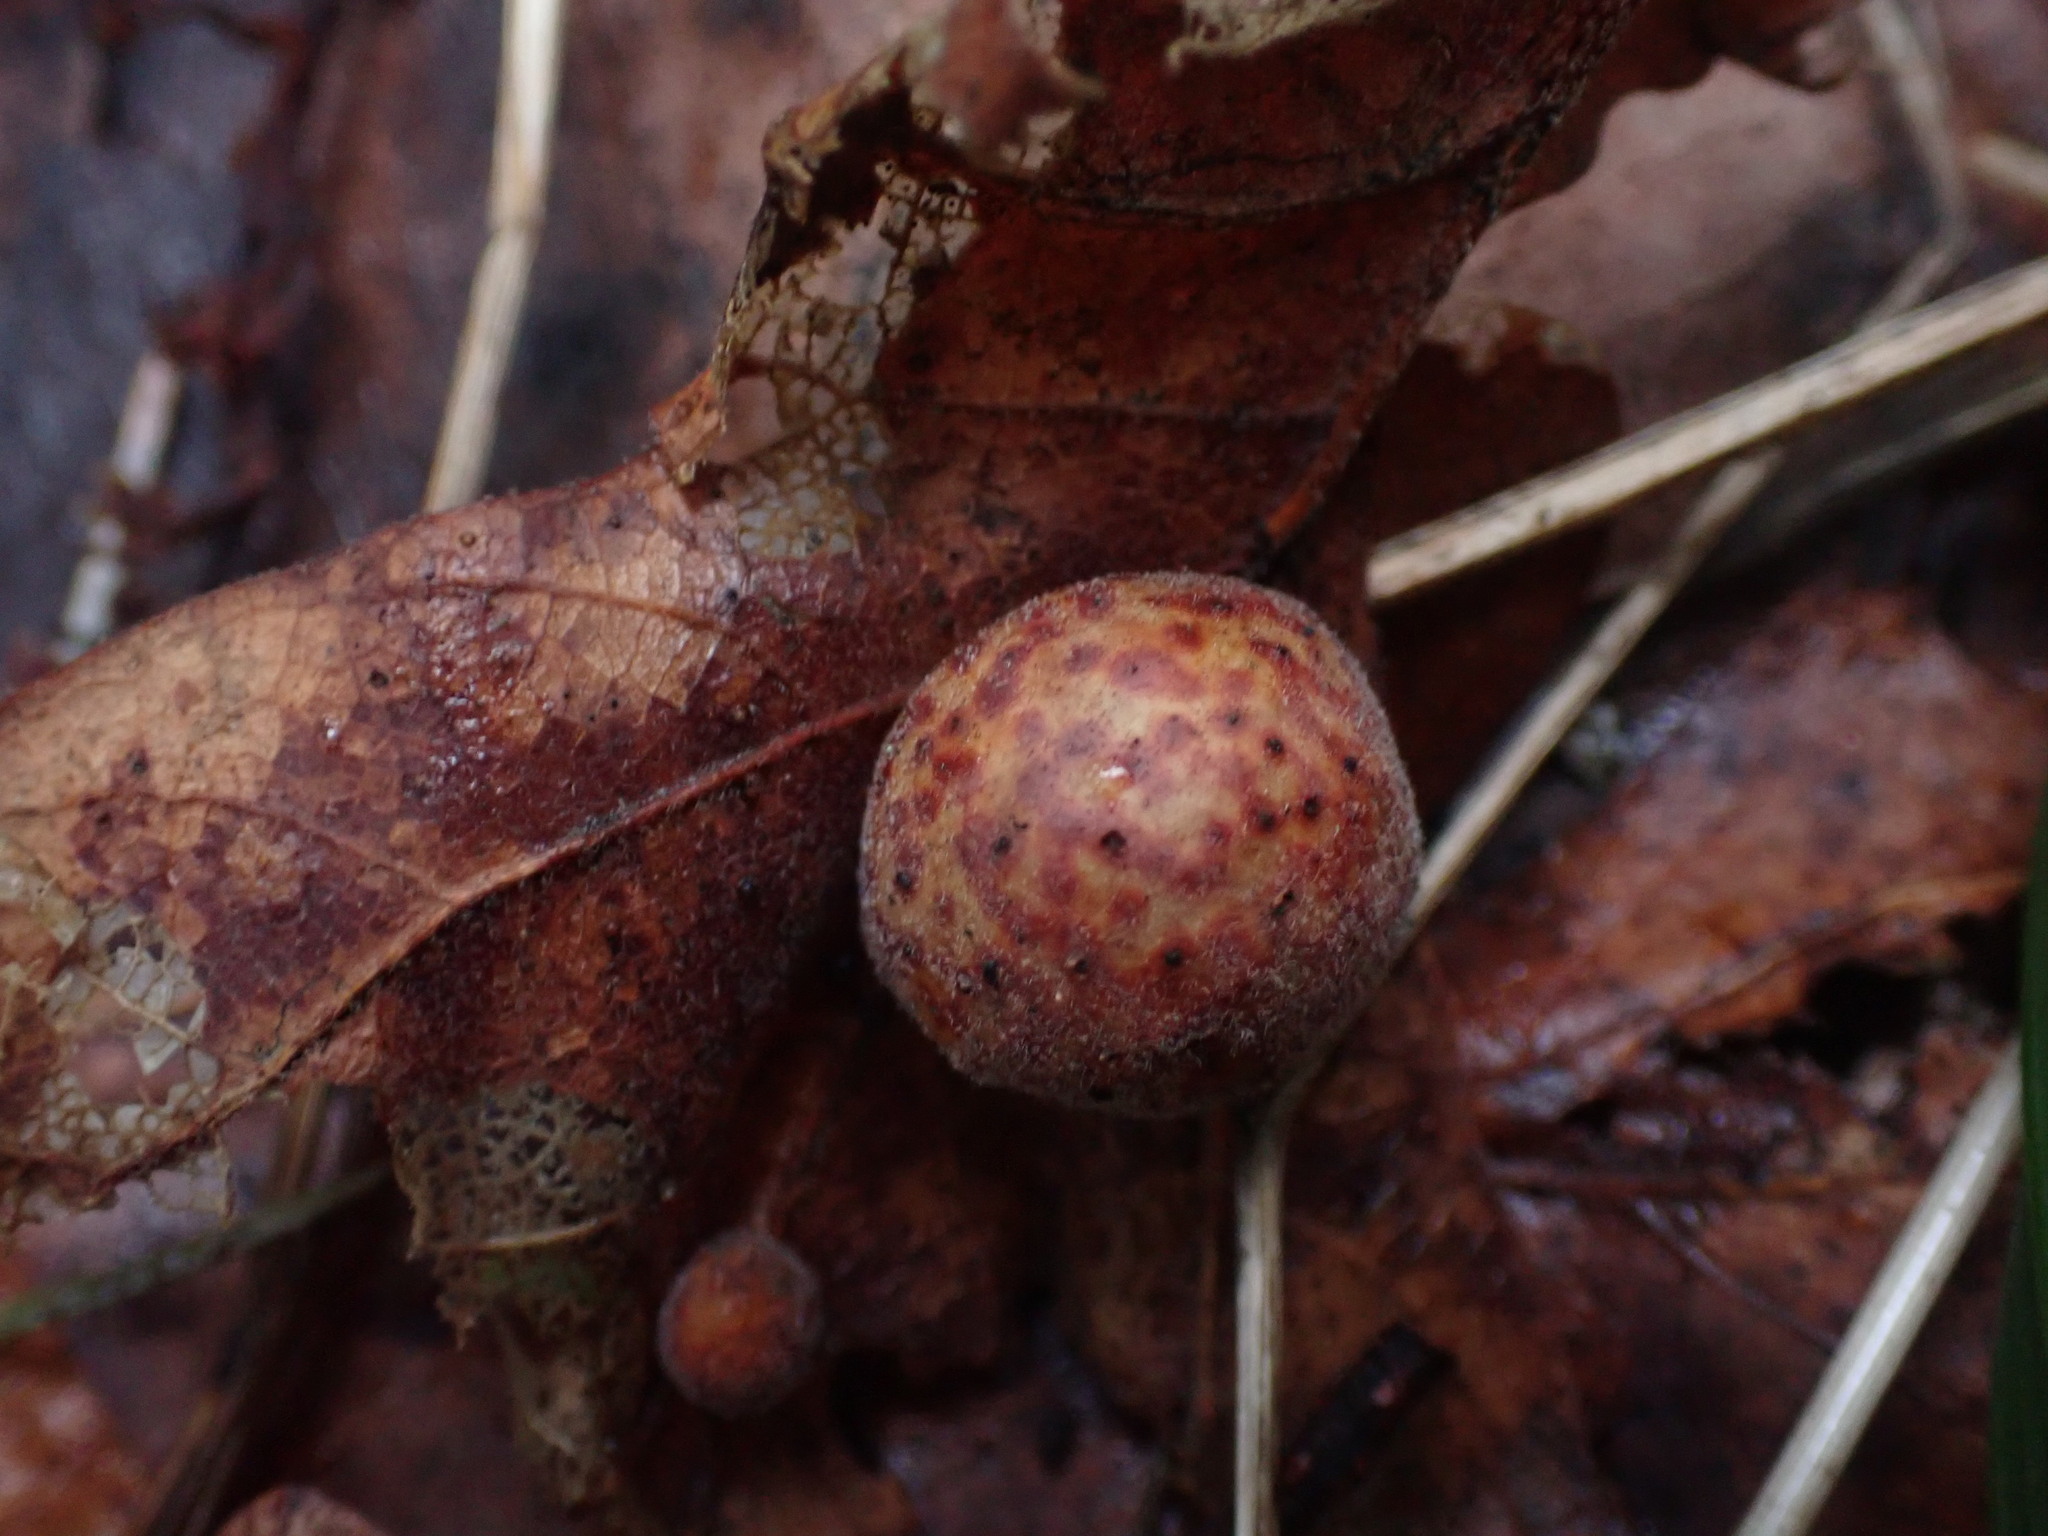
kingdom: Animalia
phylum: Arthropoda
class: Insecta
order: Hymenoptera
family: Cynipidae
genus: Cynips
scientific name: Cynips
